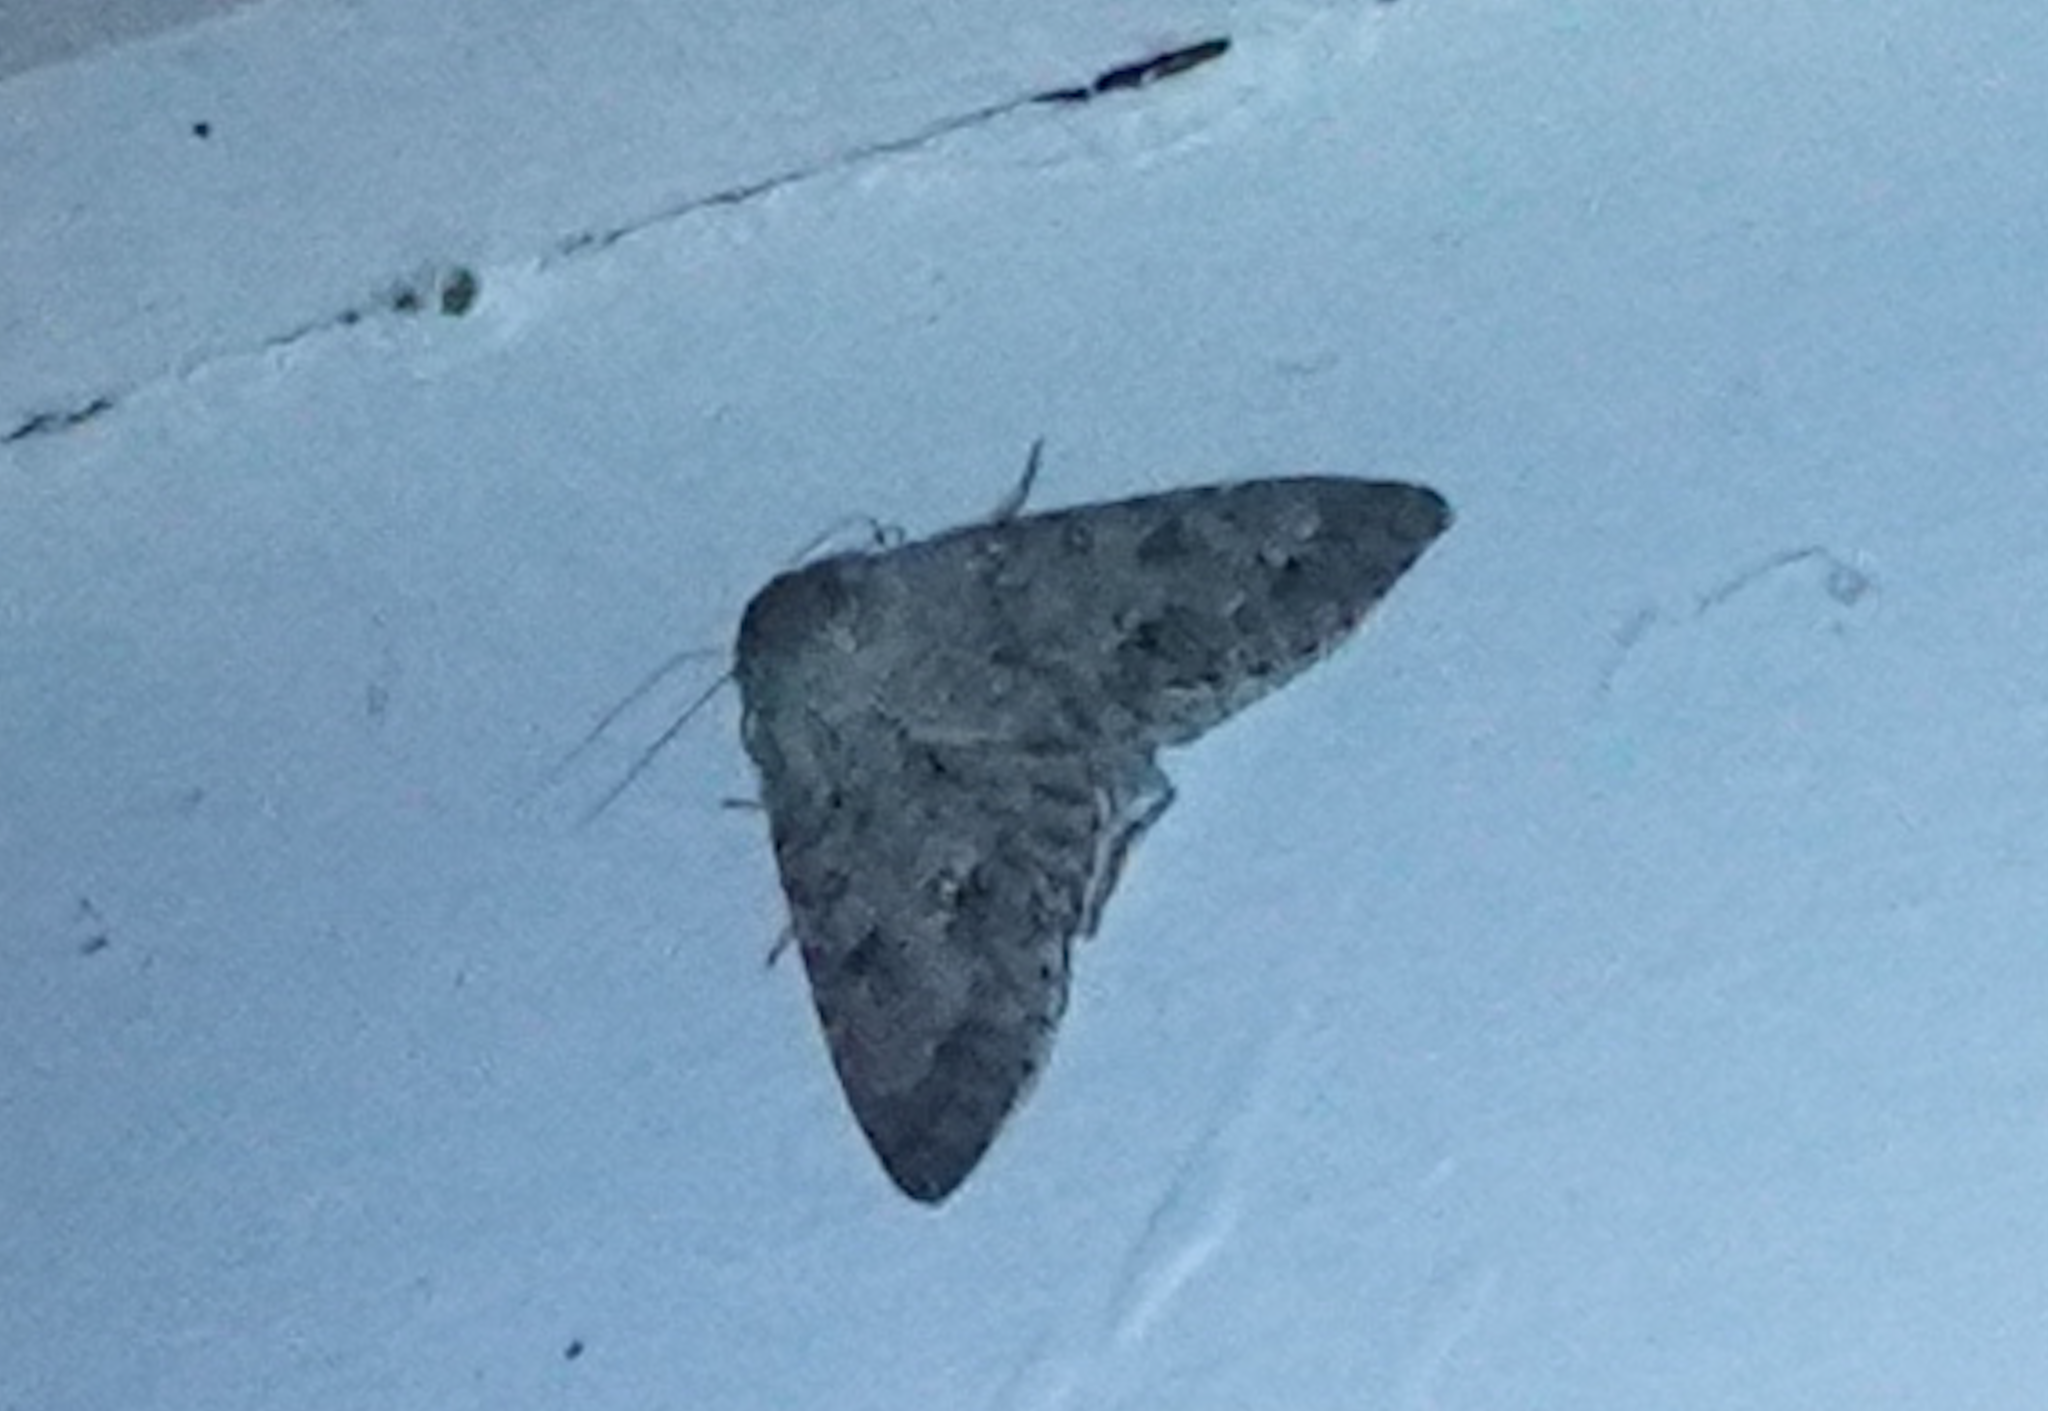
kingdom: Animalia
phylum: Arthropoda
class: Insecta
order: Lepidoptera
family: Noctuidae
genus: Acronicta
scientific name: Acronicta insita
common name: Large gray dagger
